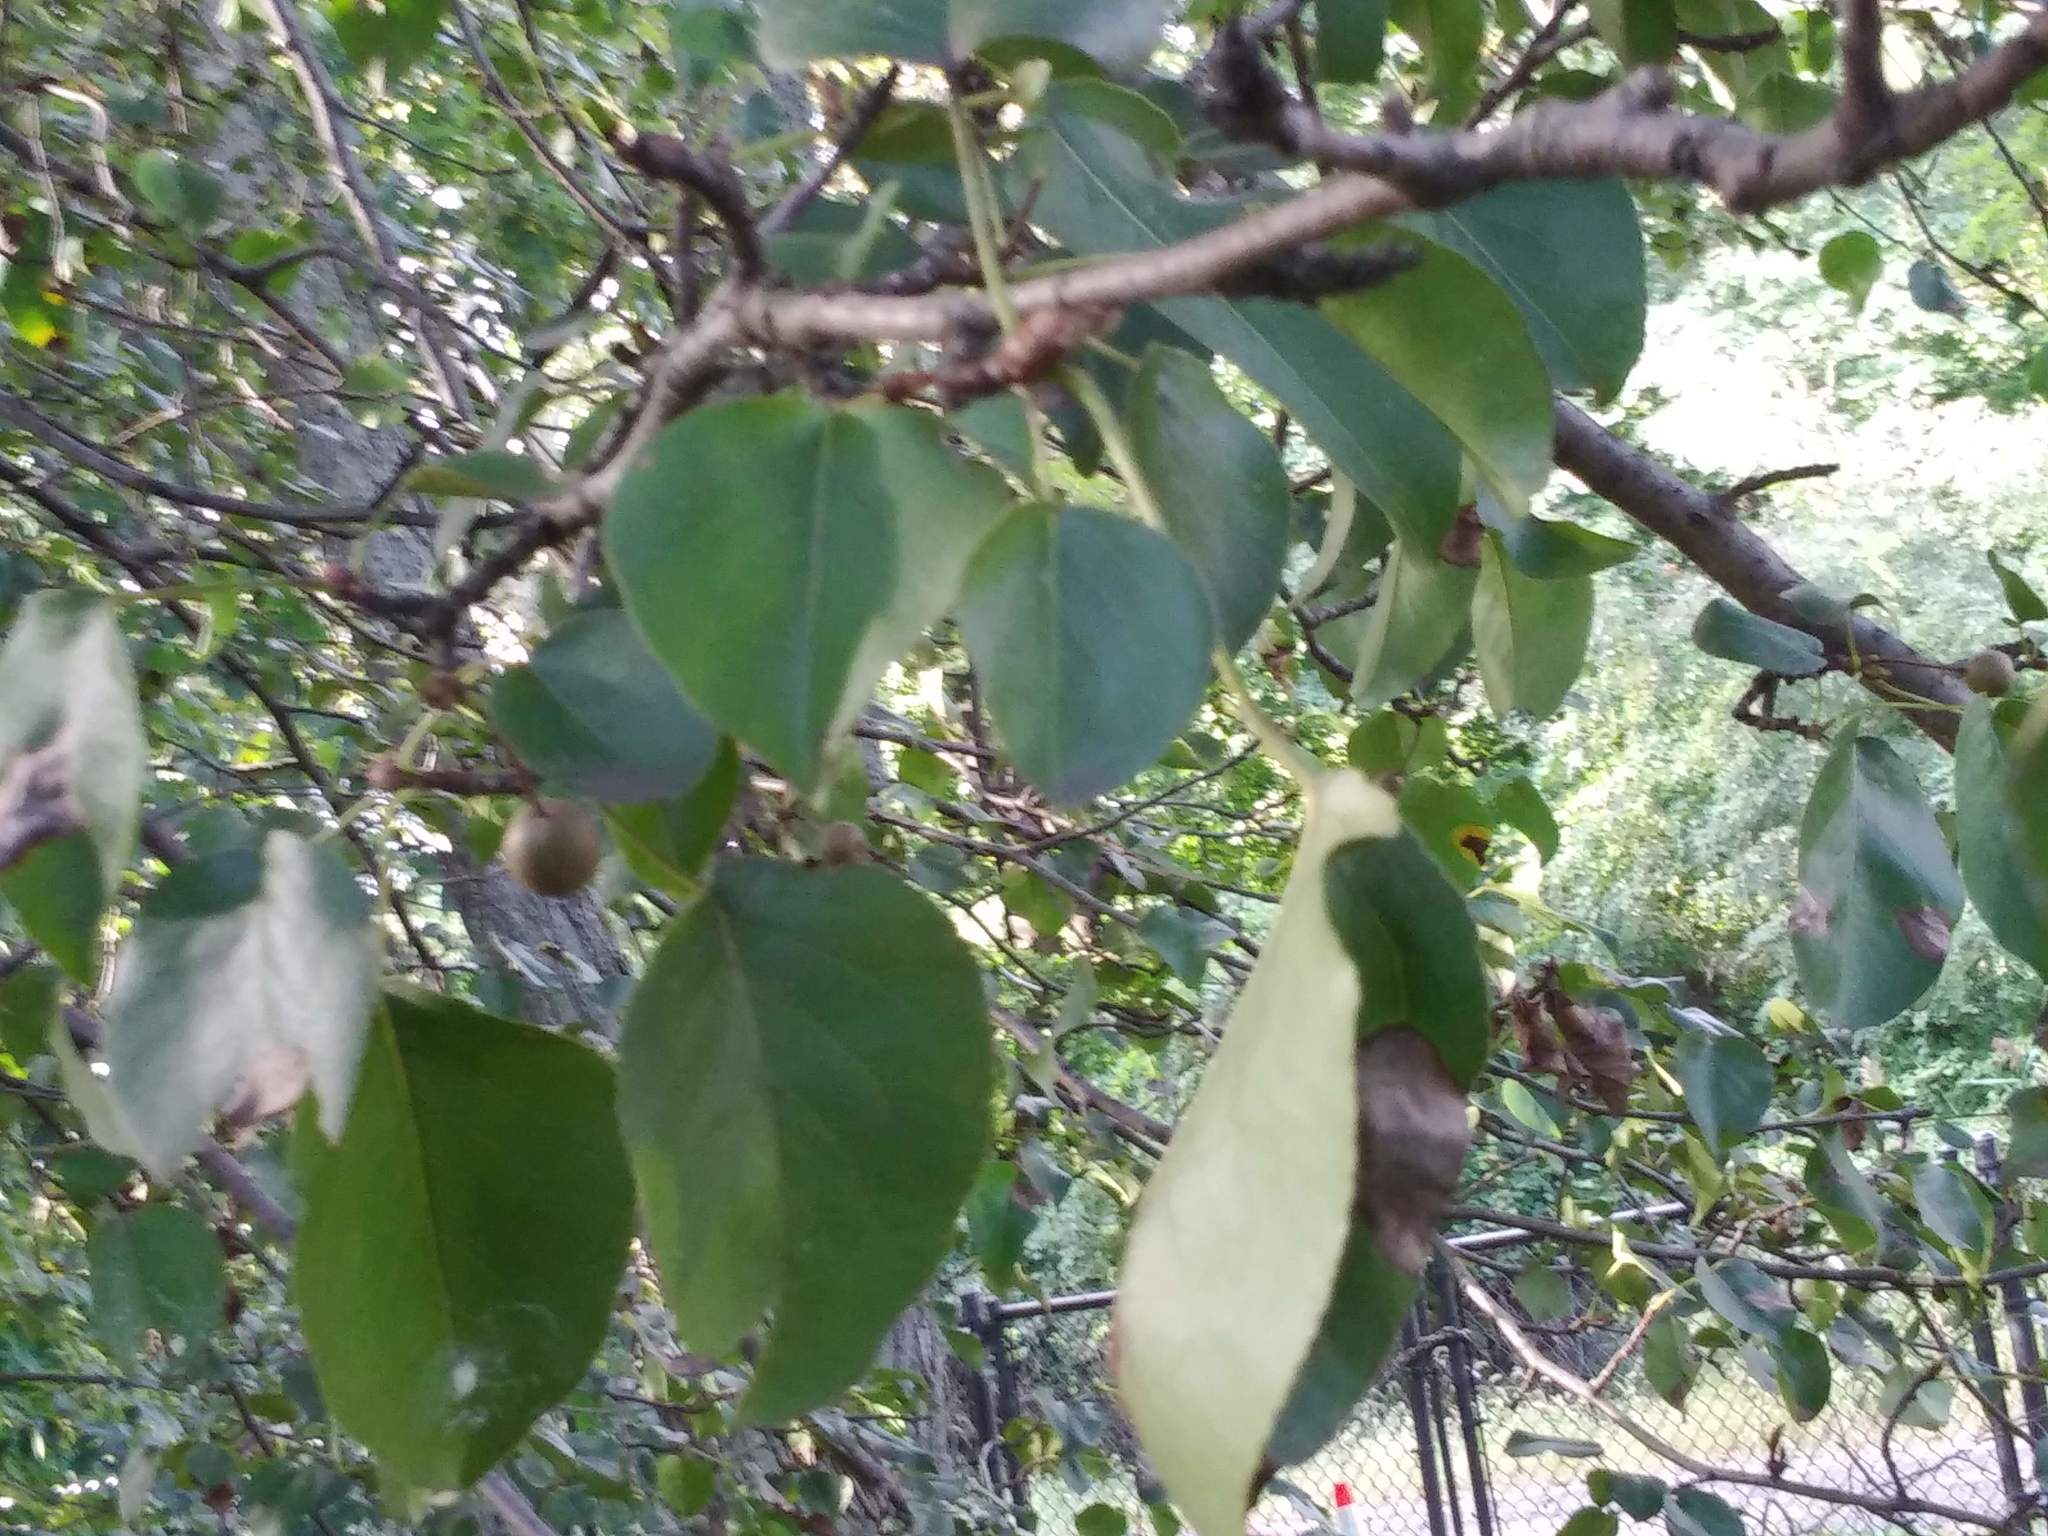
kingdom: Plantae
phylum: Tracheophyta
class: Magnoliopsida
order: Rosales
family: Rosaceae
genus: Pyrus
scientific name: Pyrus calleryana
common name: Callery pear
